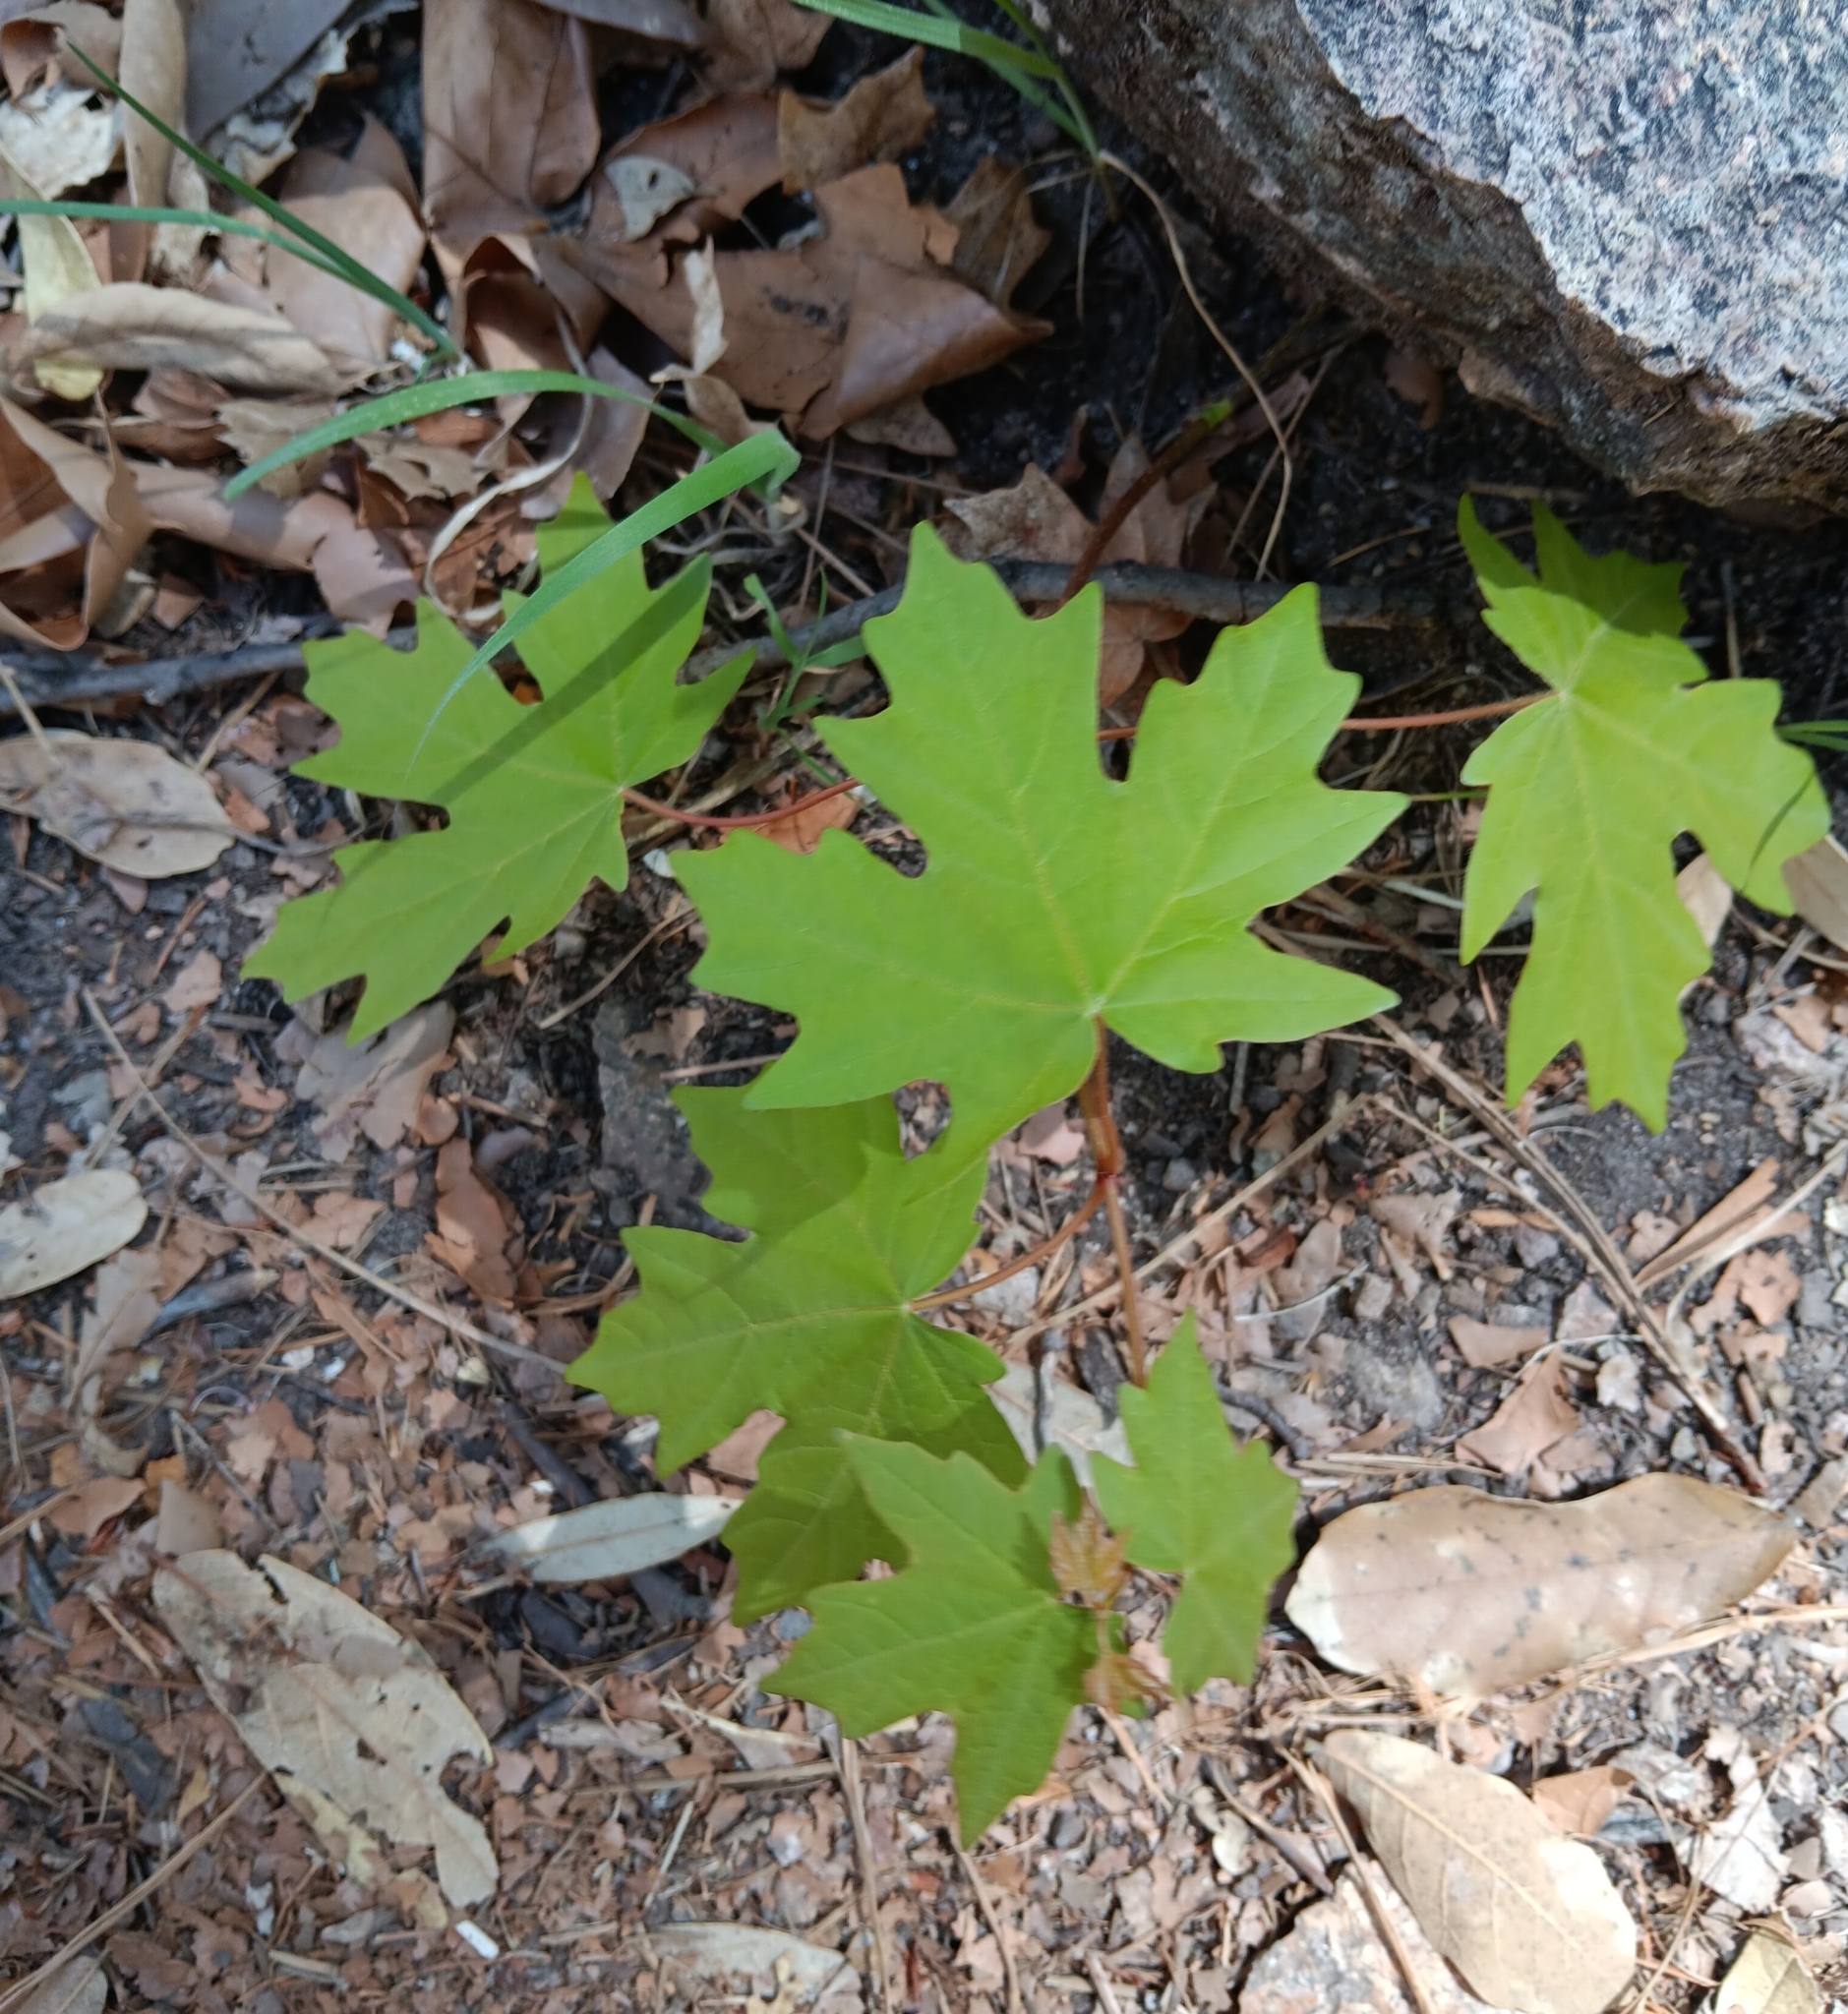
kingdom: Plantae
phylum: Tracheophyta
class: Magnoliopsida
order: Sapindales
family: Sapindaceae
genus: Acer
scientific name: Acer grandidentatum
